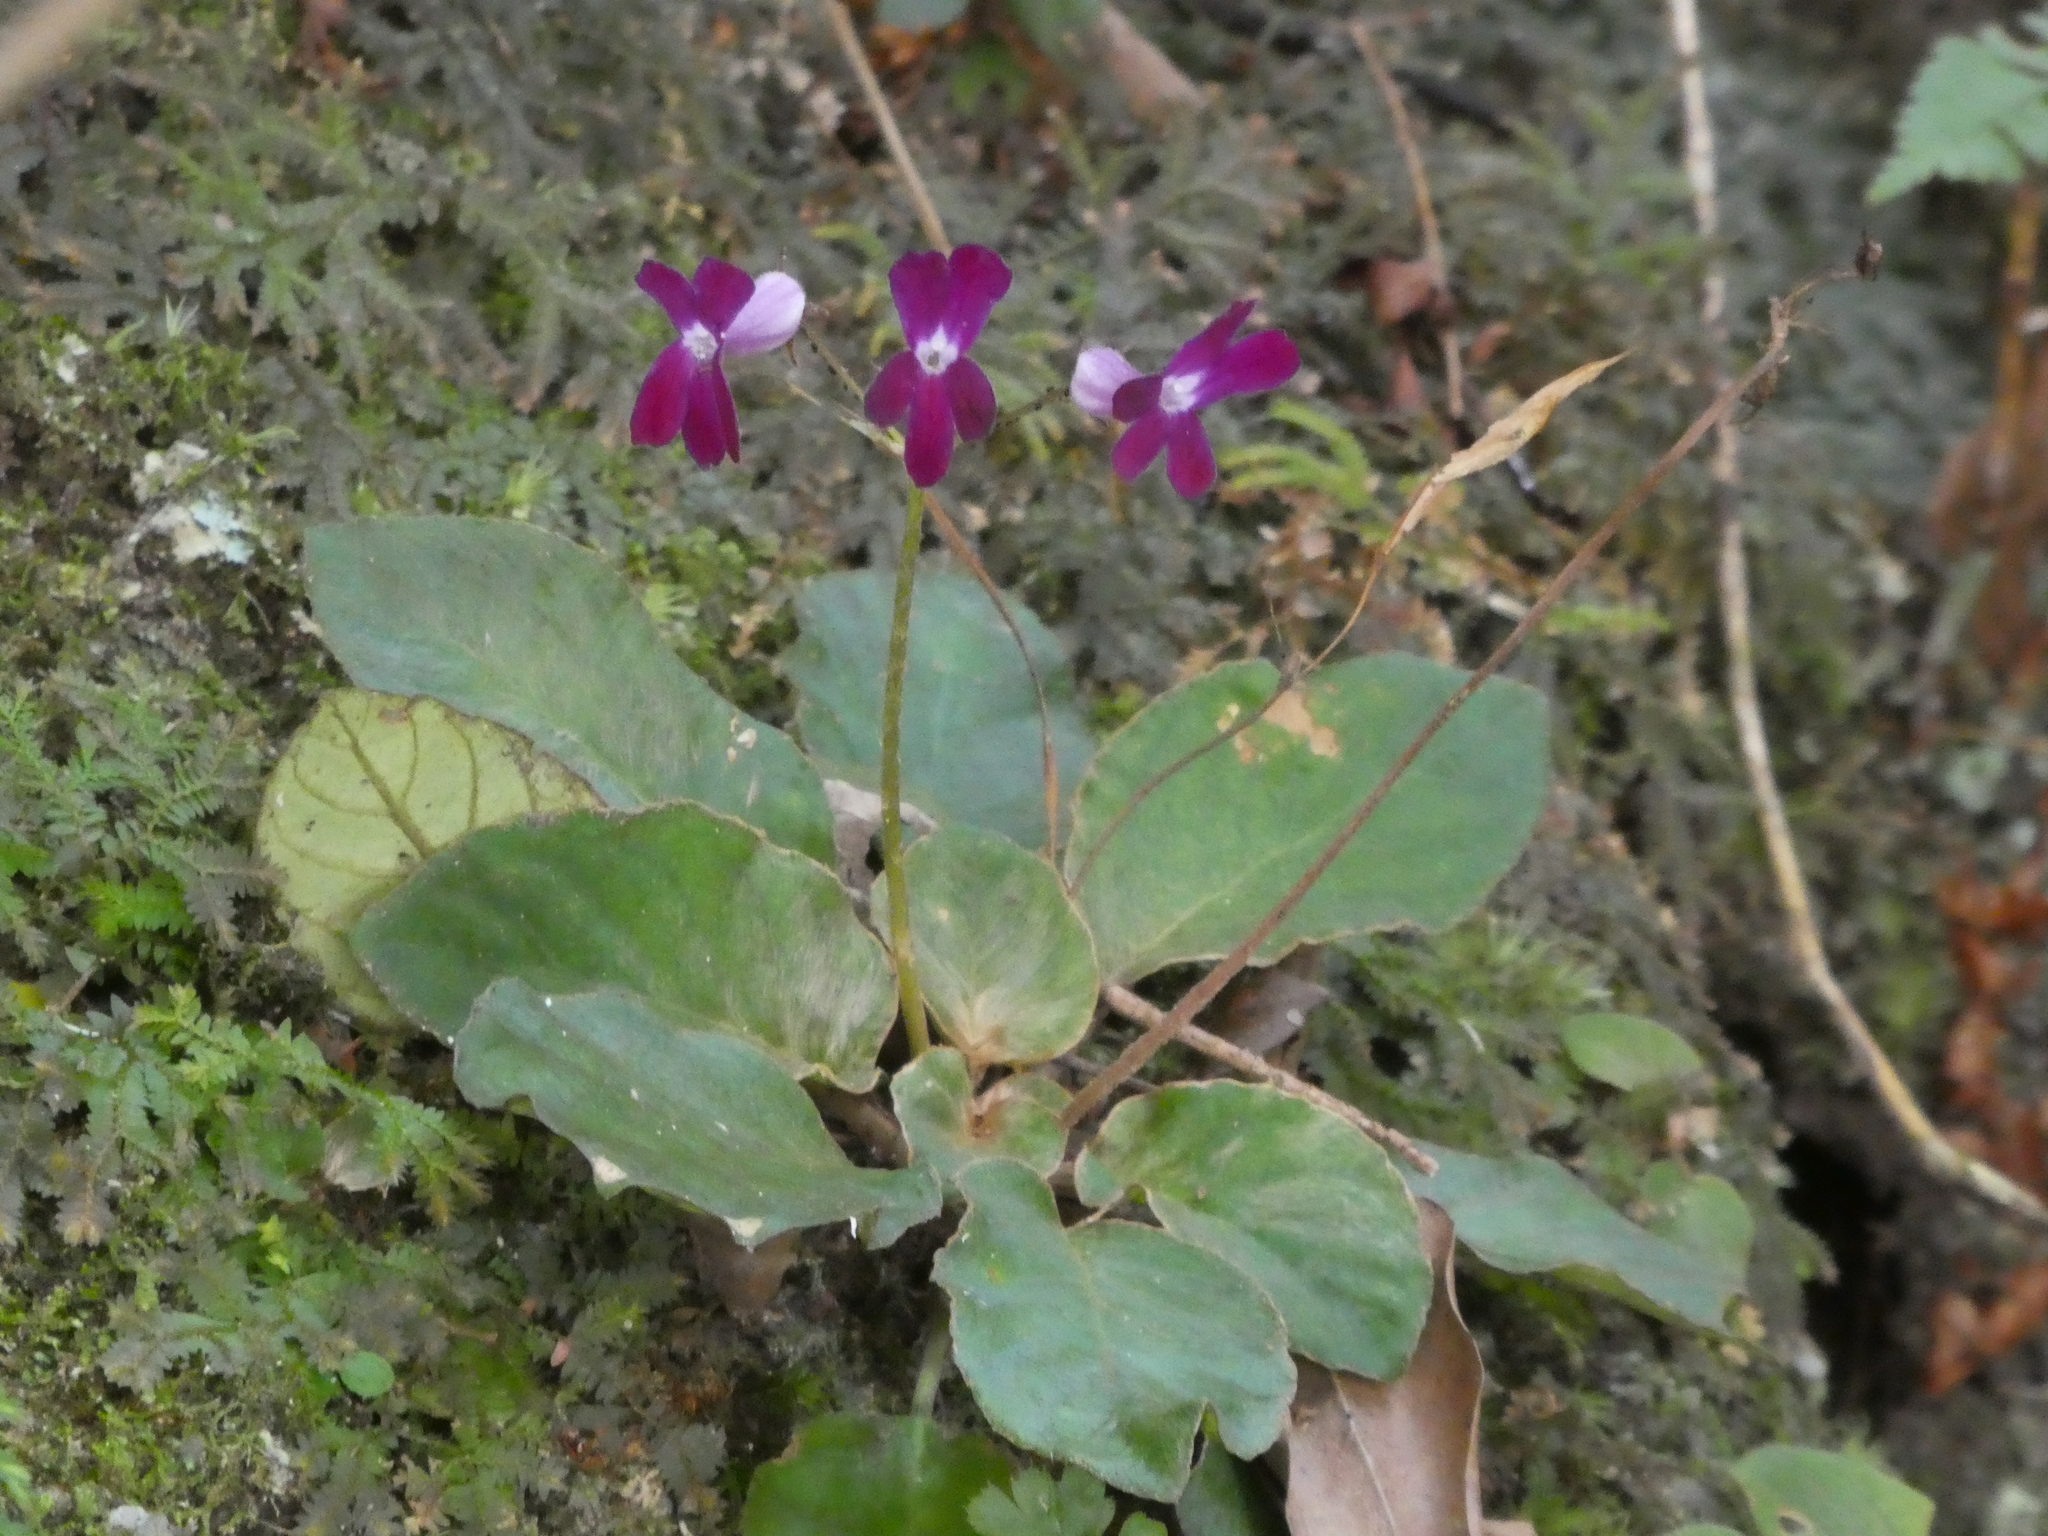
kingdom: Plantae
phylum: Tracheophyta
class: Magnoliopsida
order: Lamiales
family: Gesneriaceae
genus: Oreocharis
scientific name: Oreocharis auricula
